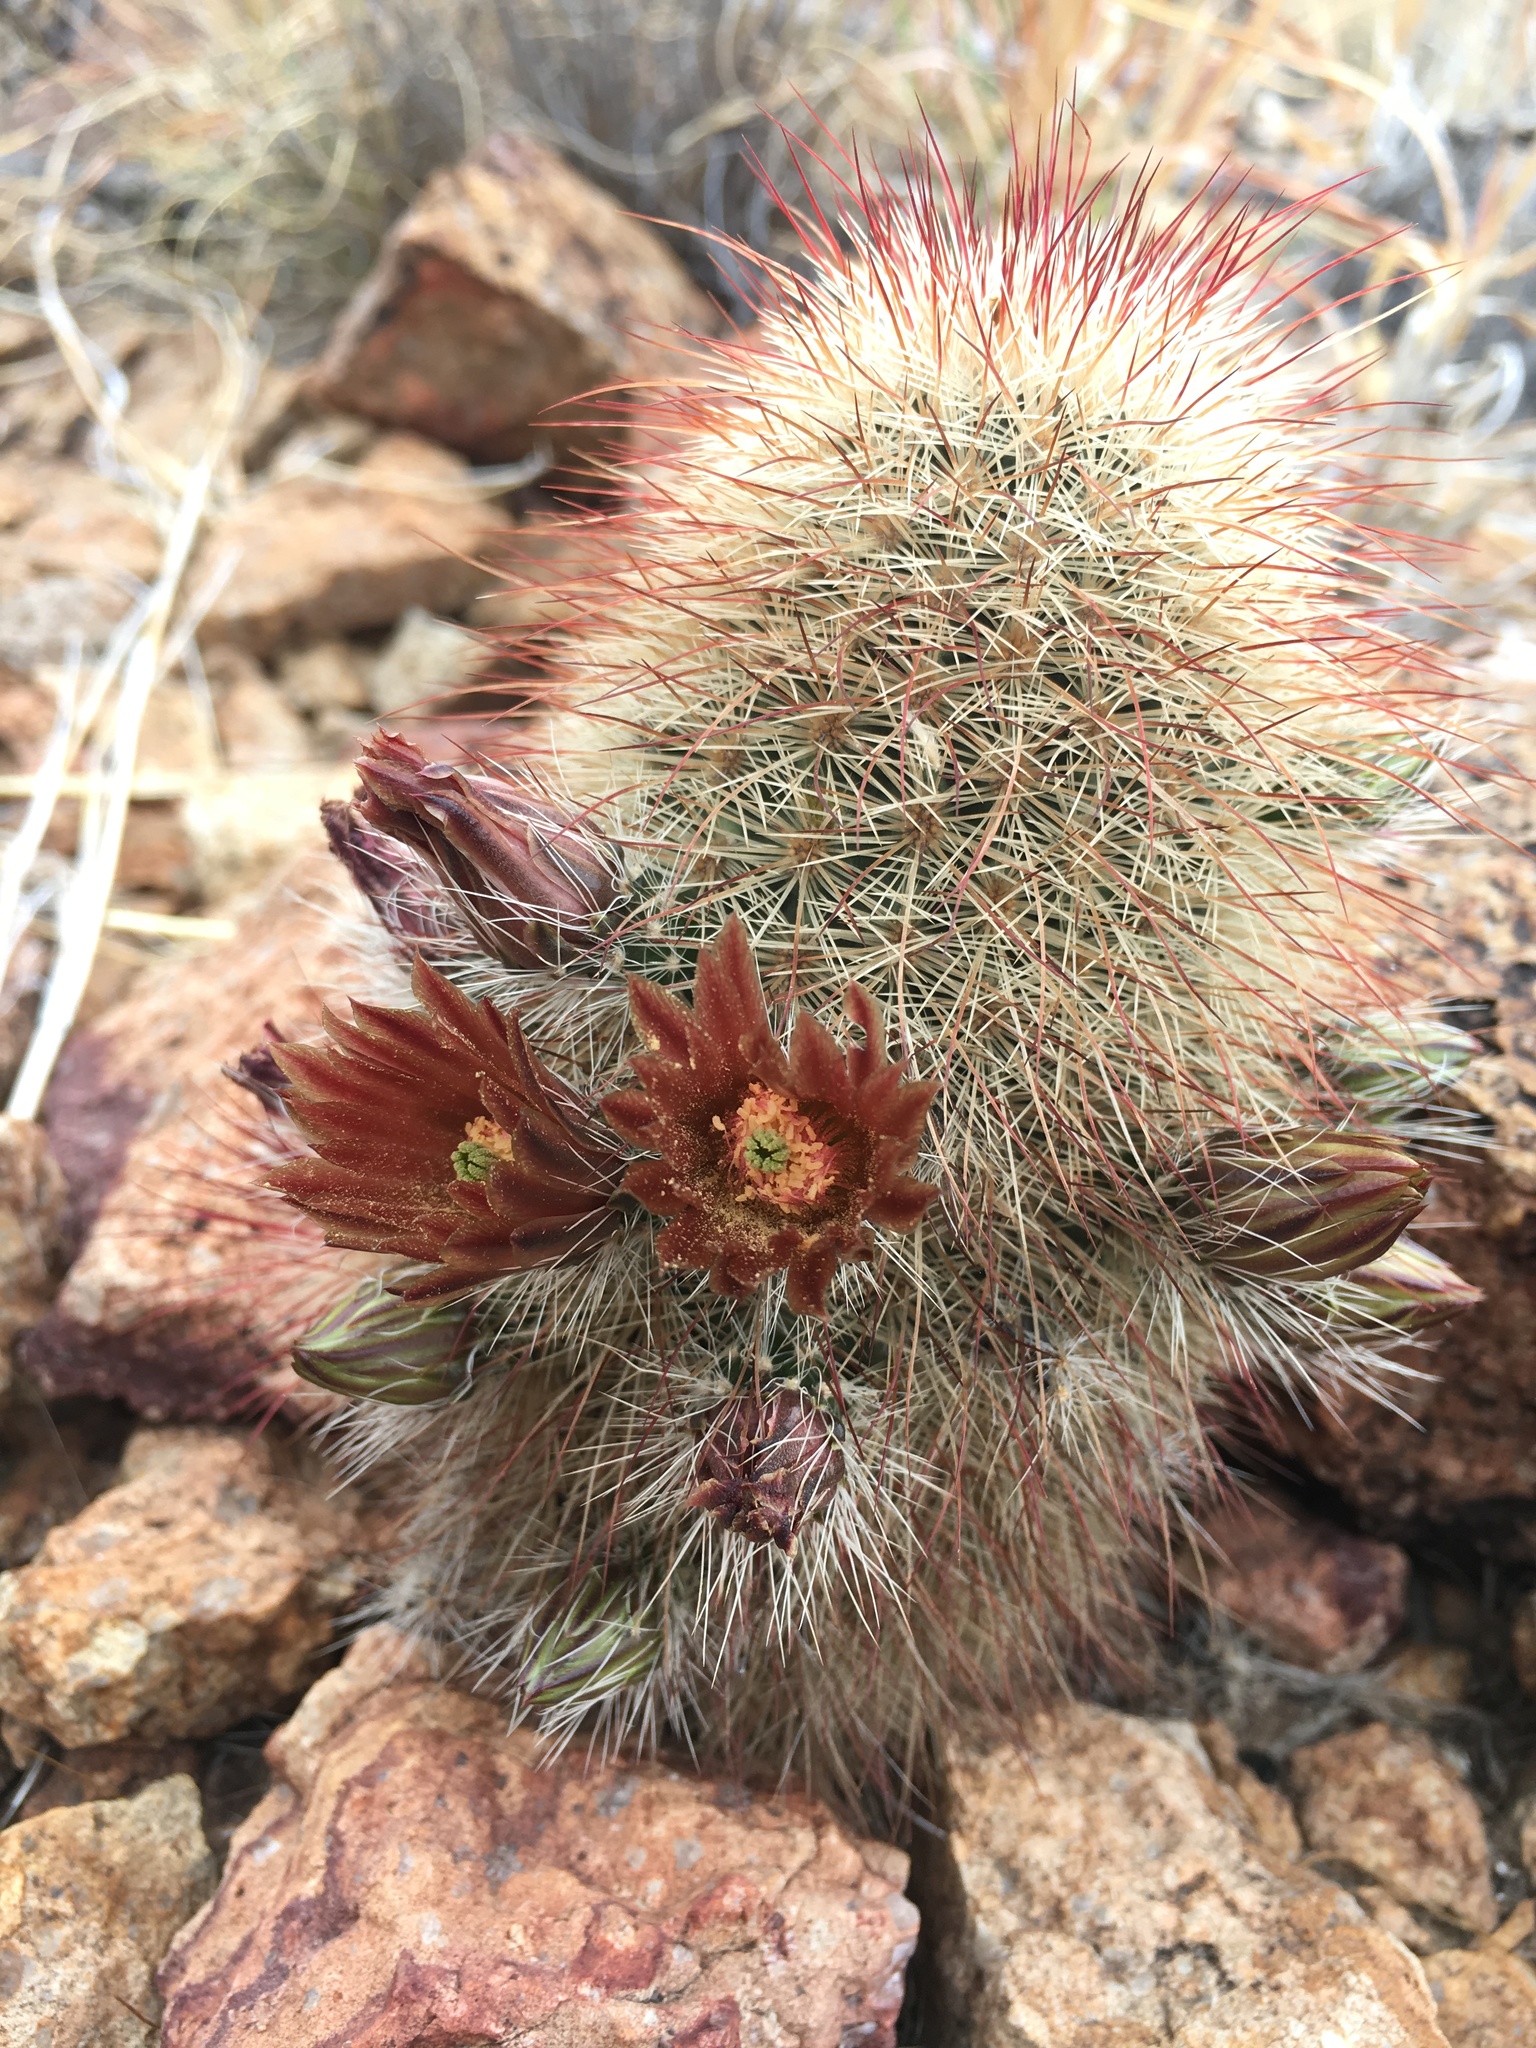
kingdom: Plantae
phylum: Tracheophyta
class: Magnoliopsida
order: Caryophyllales
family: Cactaceae
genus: Echinocereus
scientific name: Echinocereus russanthus
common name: Brownspine hedgehog cactus
